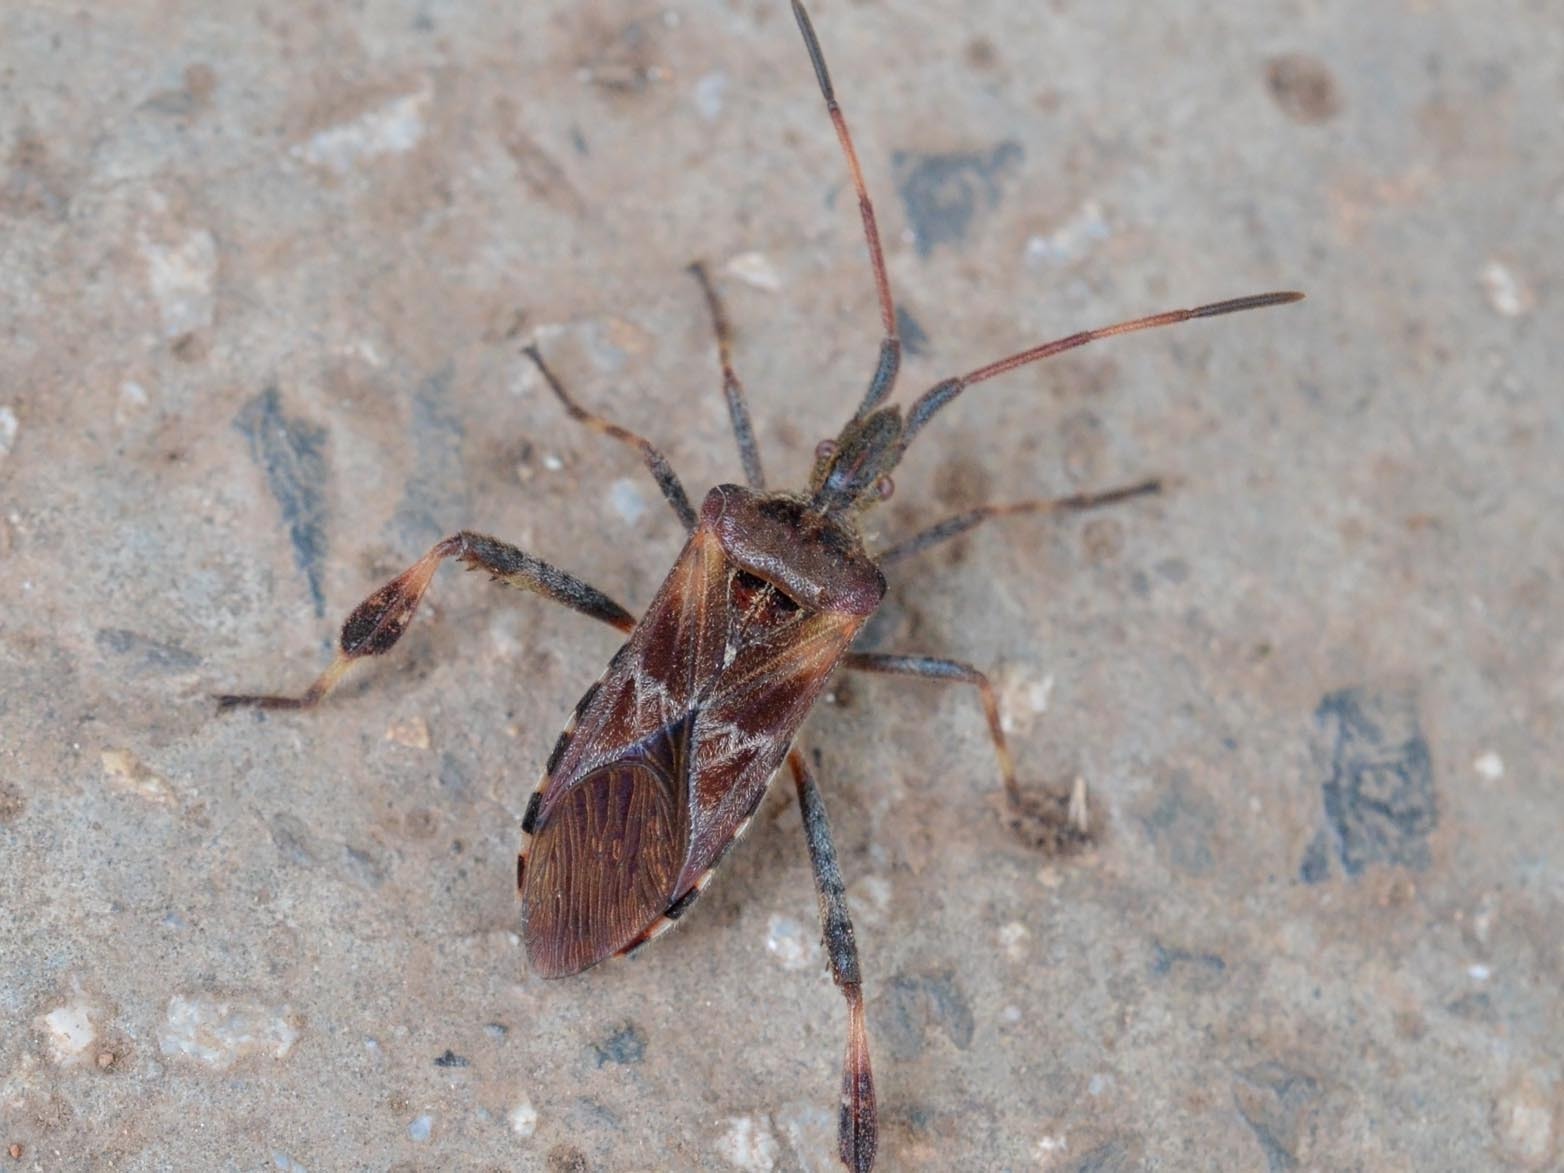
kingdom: Animalia
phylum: Arthropoda
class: Insecta
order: Hemiptera
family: Coreidae
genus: Leptoglossus
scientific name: Leptoglossus occidentalis
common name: Western conifer-seed bug
